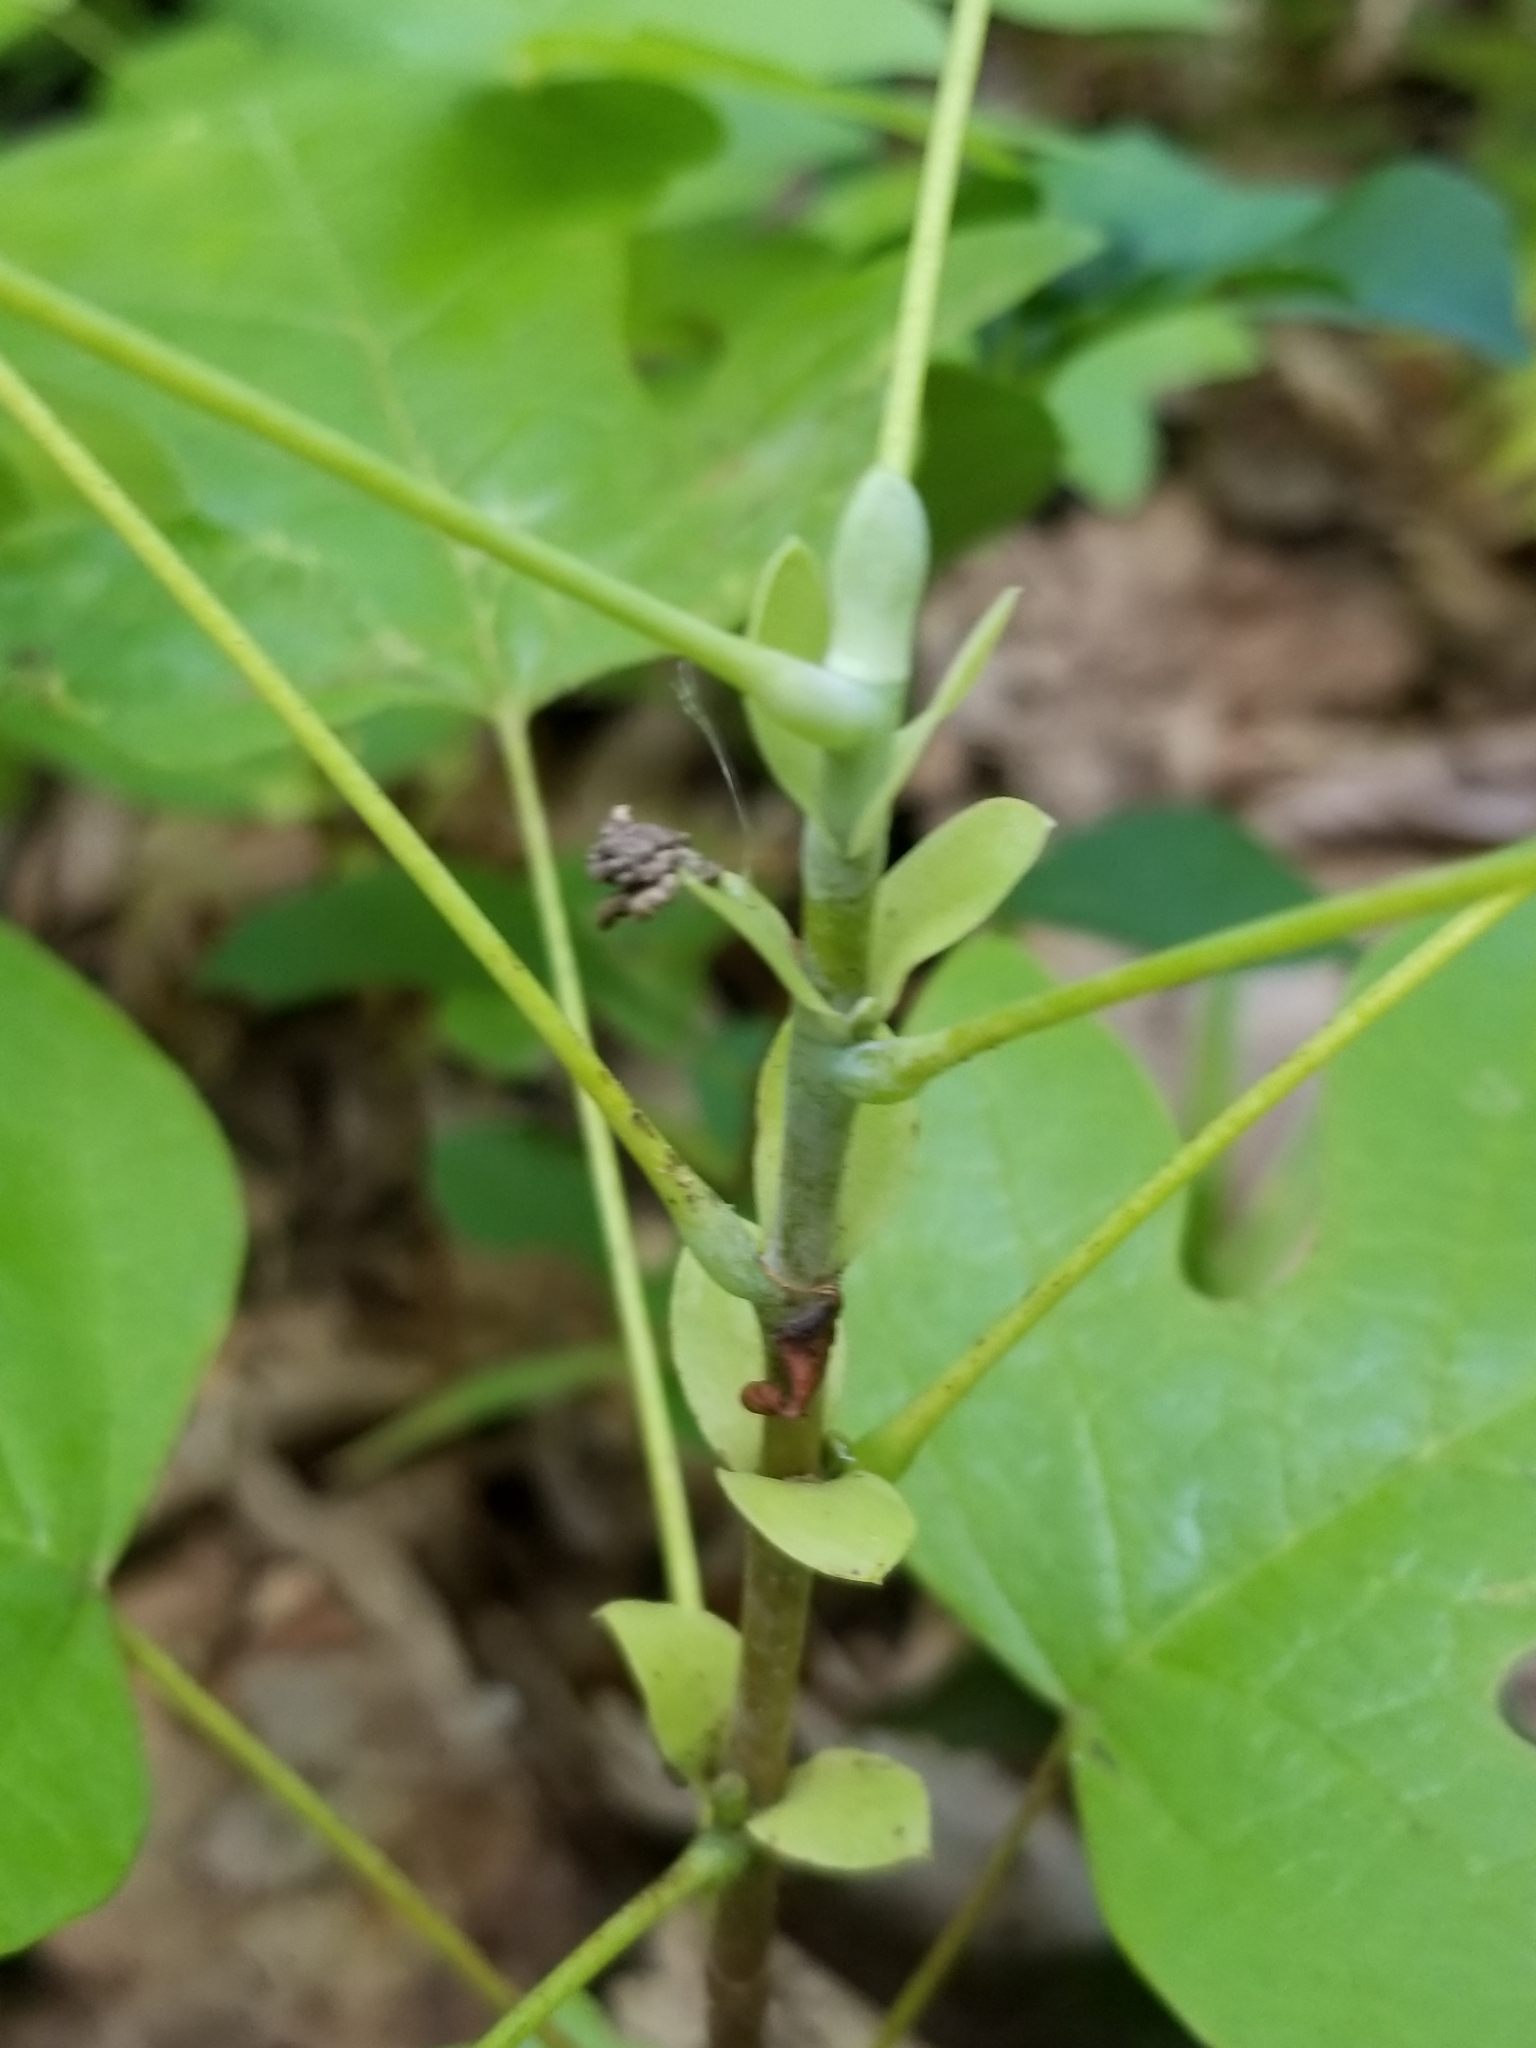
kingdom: Plantae
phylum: Tracheophyta
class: Magnoliopsida
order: Magnoliales
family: Magnoliaceae
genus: Liriodendron
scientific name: Liriodendron tulipifera
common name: Tulip tree
